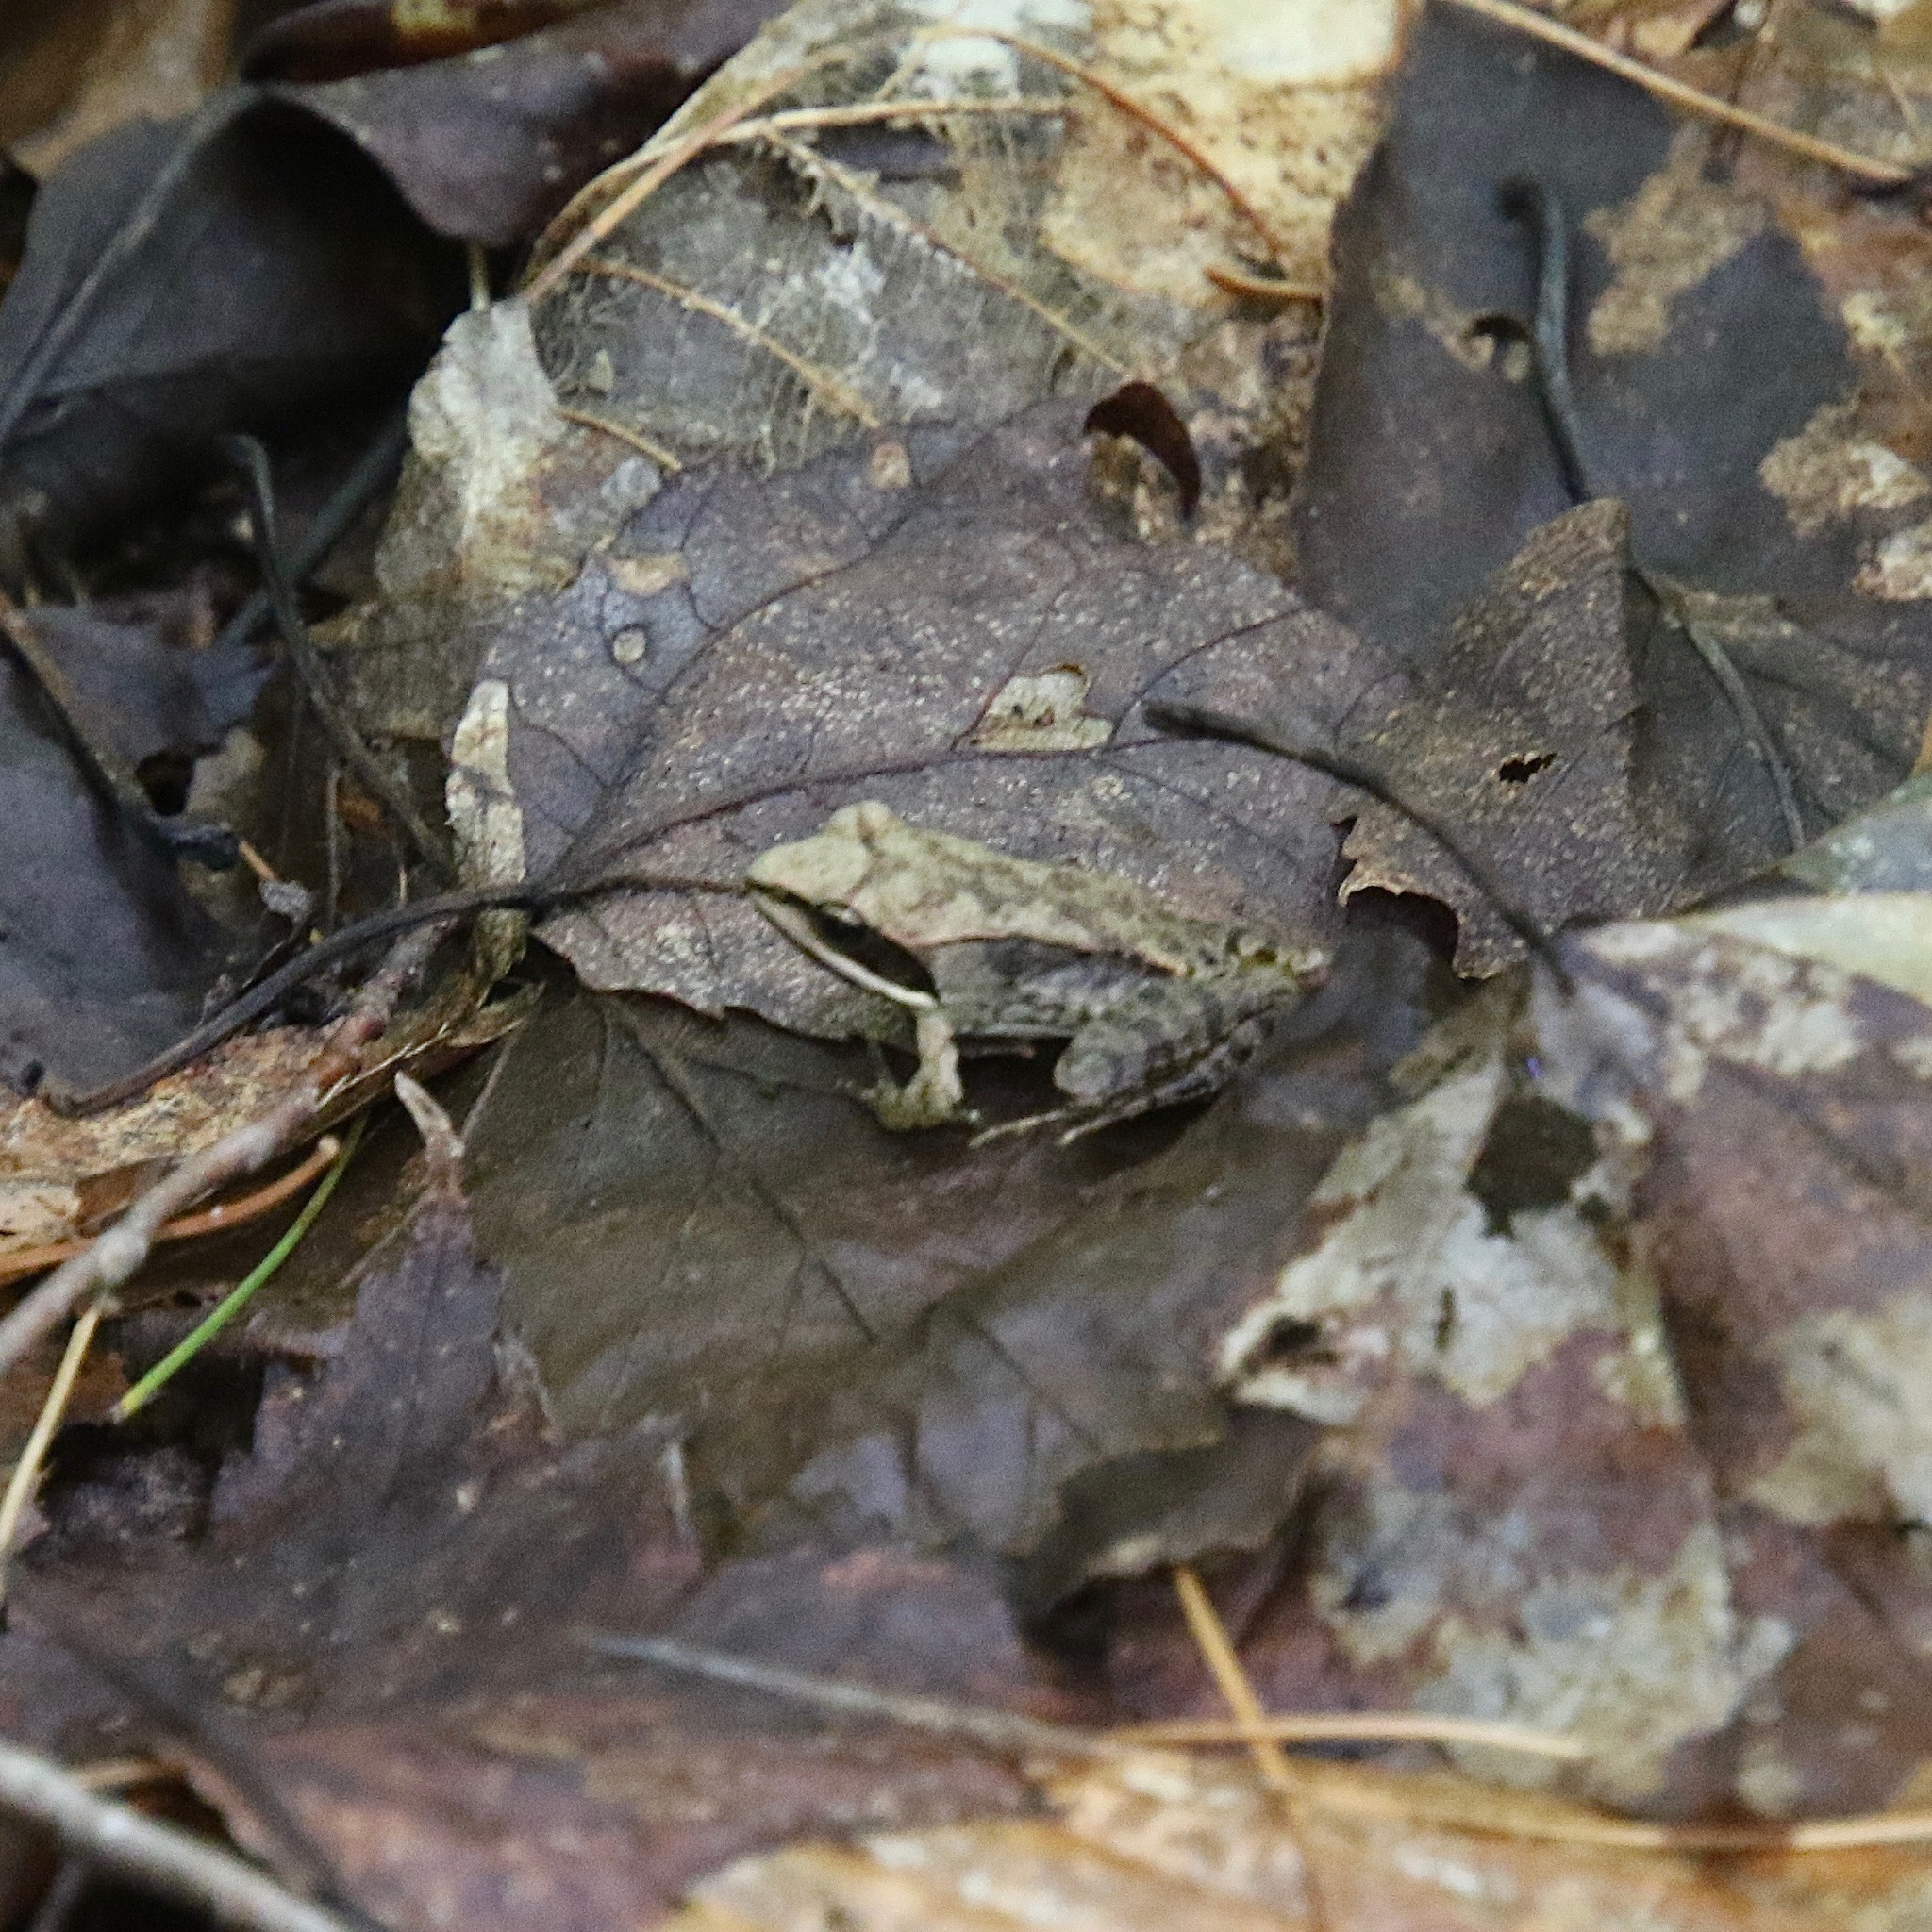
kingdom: Animalia
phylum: Chordata
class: Amphibia
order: Anura
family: Ranidae
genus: Lithobates
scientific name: Lithobates sylvaticus
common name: Wood frog
